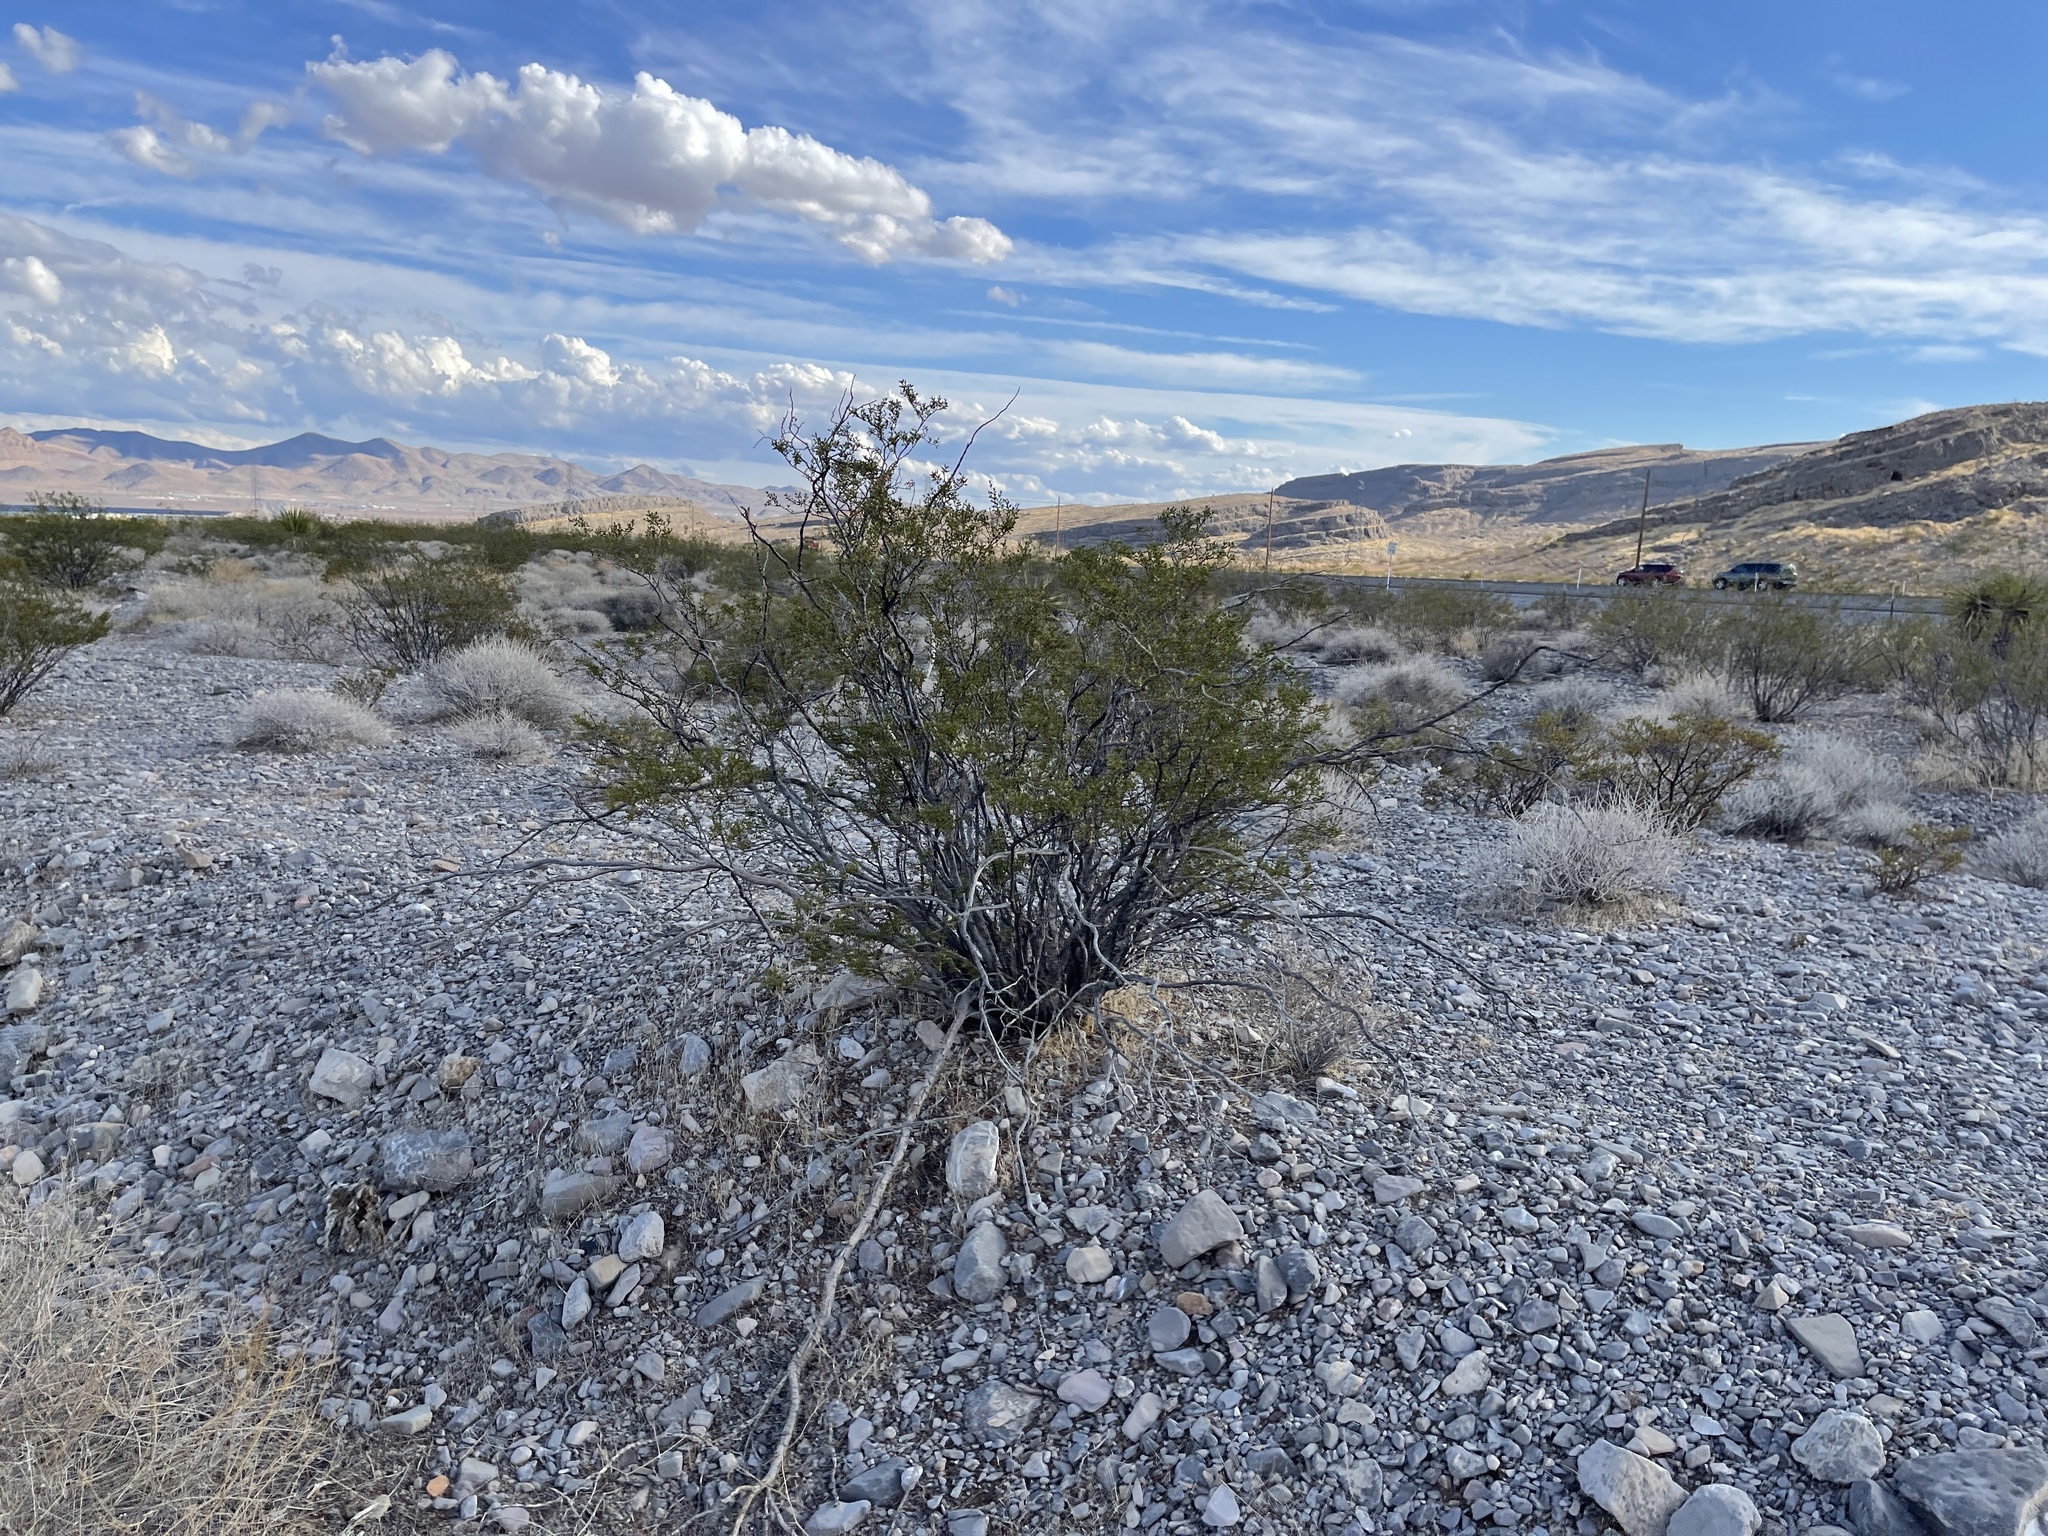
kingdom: Plantae
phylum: Tracheophyta
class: Magnoliopsida
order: Zygophyllales
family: Zygophyllaceae
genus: Larrea
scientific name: Larrea tridentata
